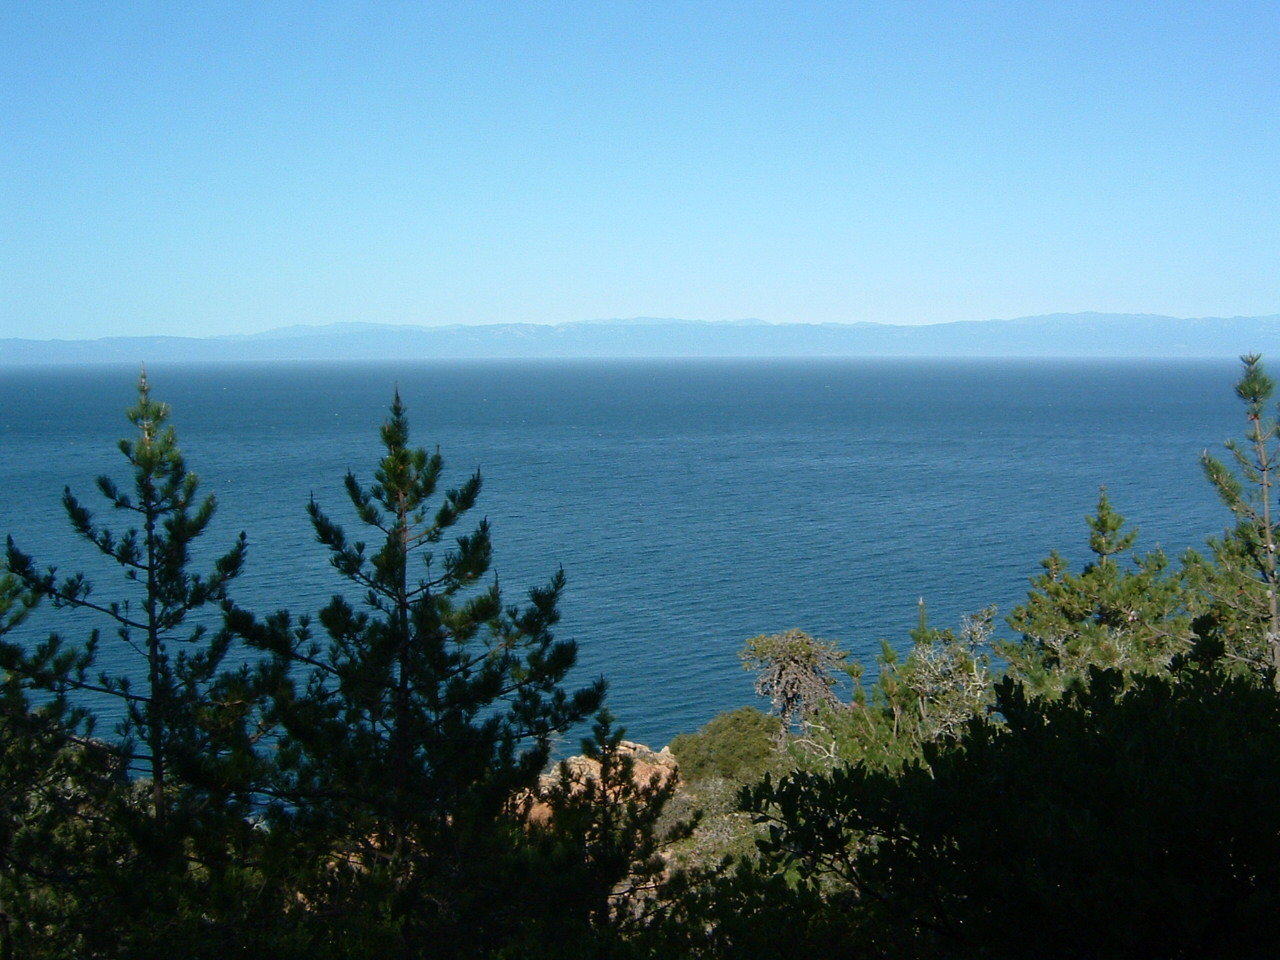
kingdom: Plantae
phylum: Tracheophyta
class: Pinopsida
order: Pinales
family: Pinaceae
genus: Pinus
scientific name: Pinus muricata
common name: Bishop pine
